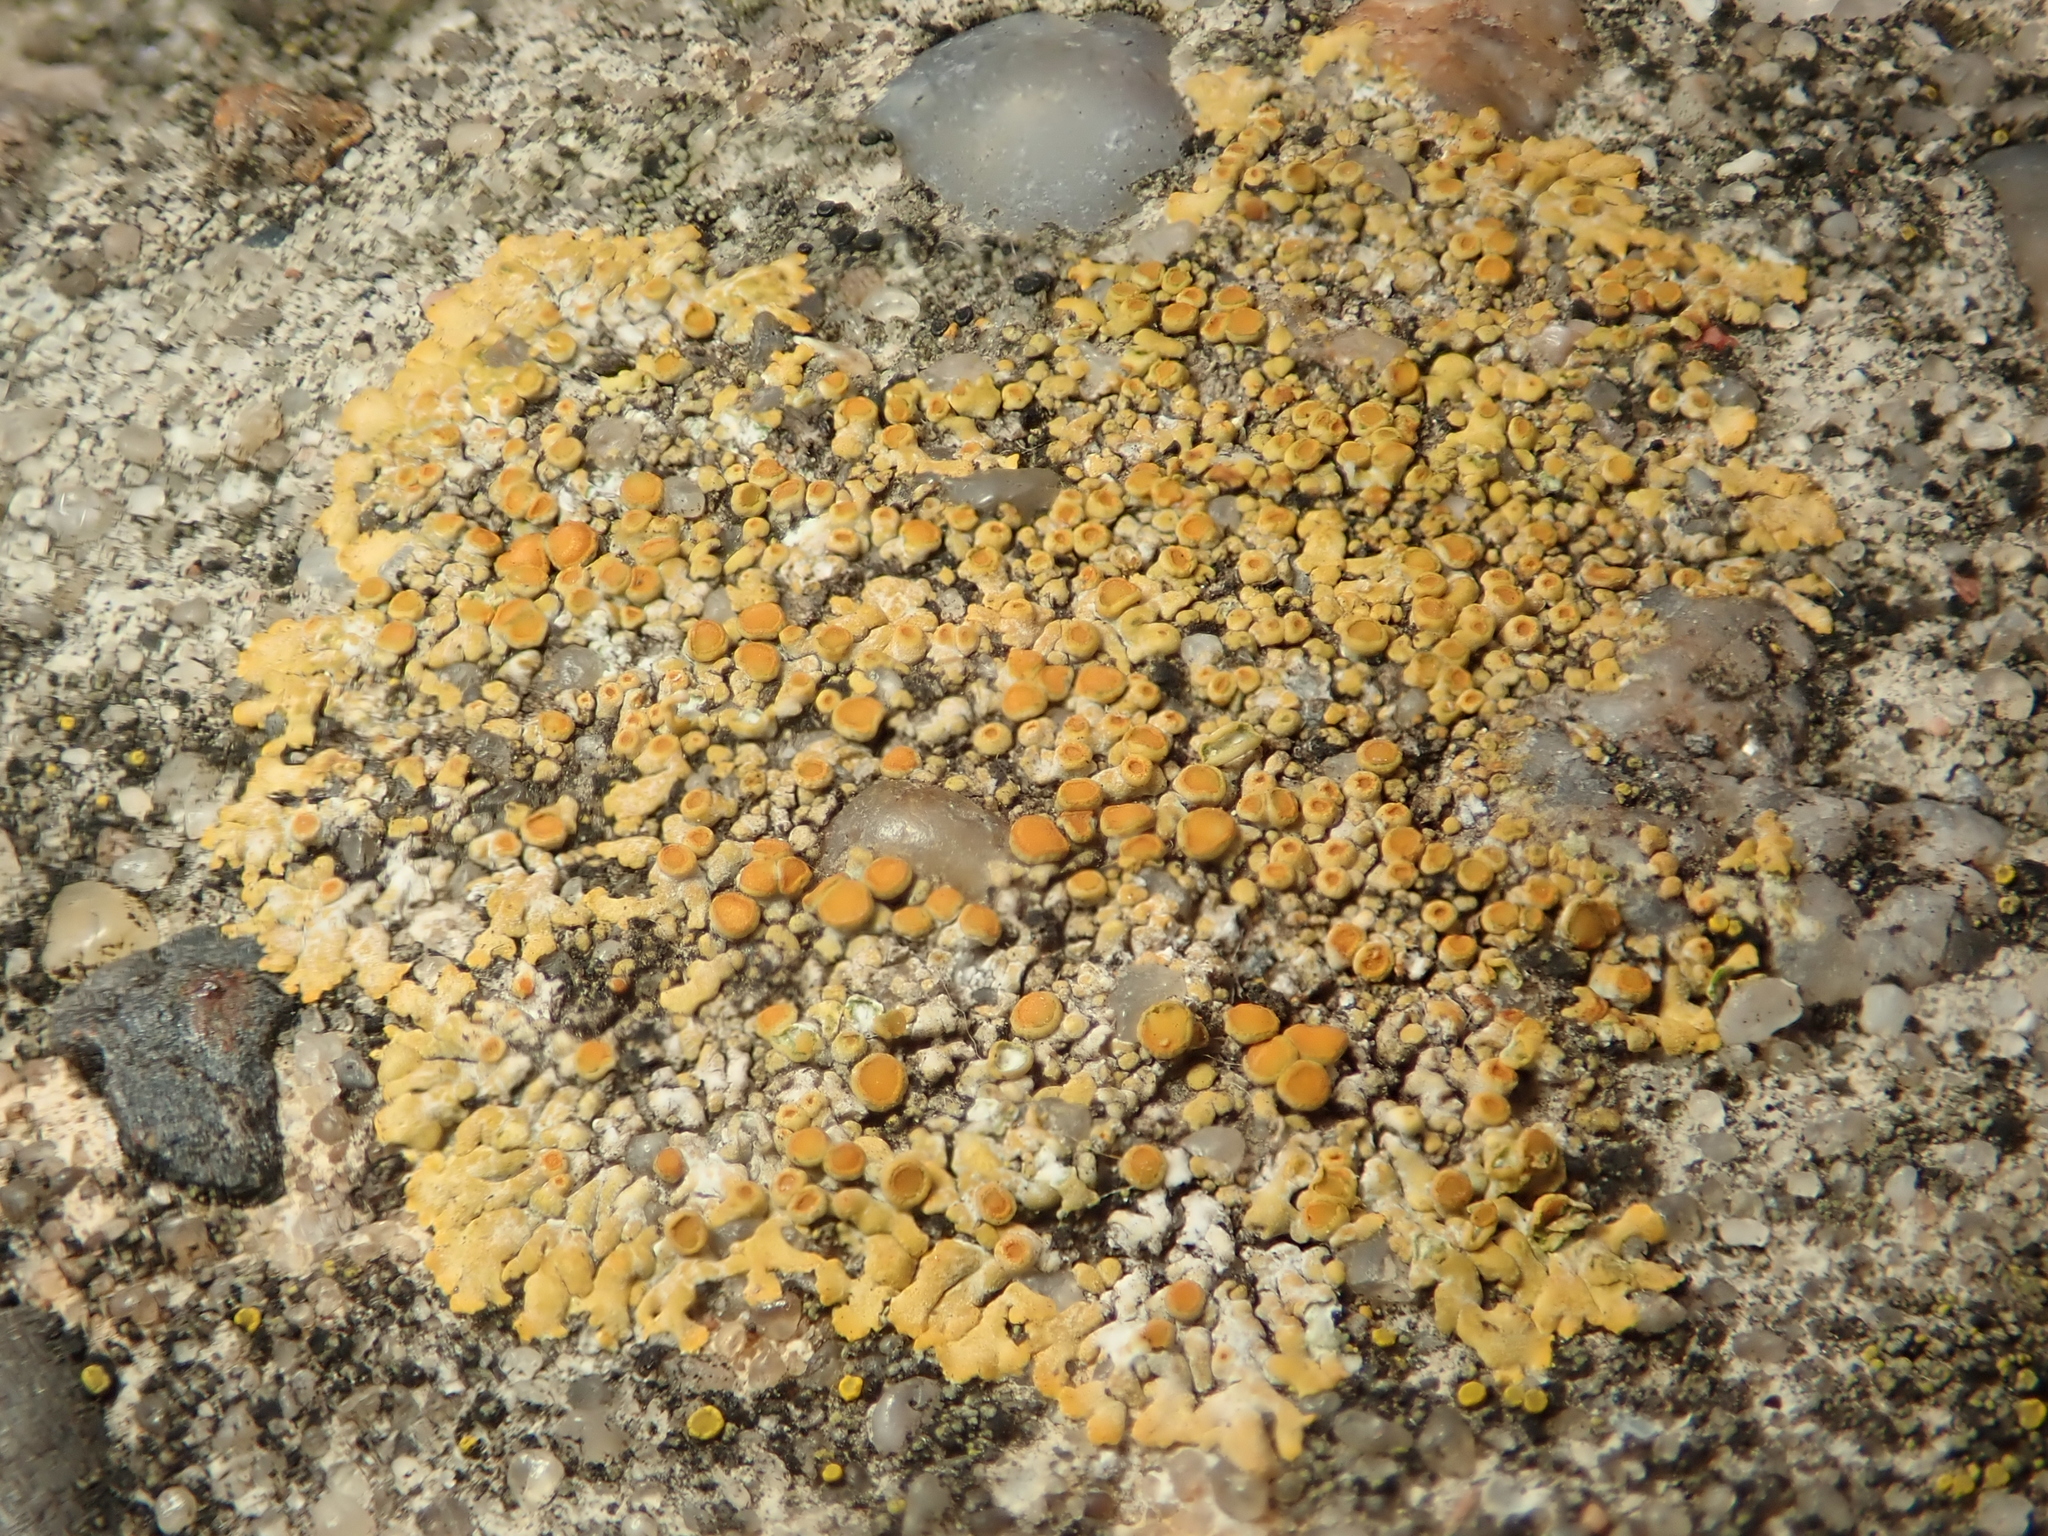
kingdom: Fungi
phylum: Ascomycota
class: Lecanoromycetes
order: Teloschistales
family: Teloschistaceae
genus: Calogaya
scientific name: Calogaya pusilla
